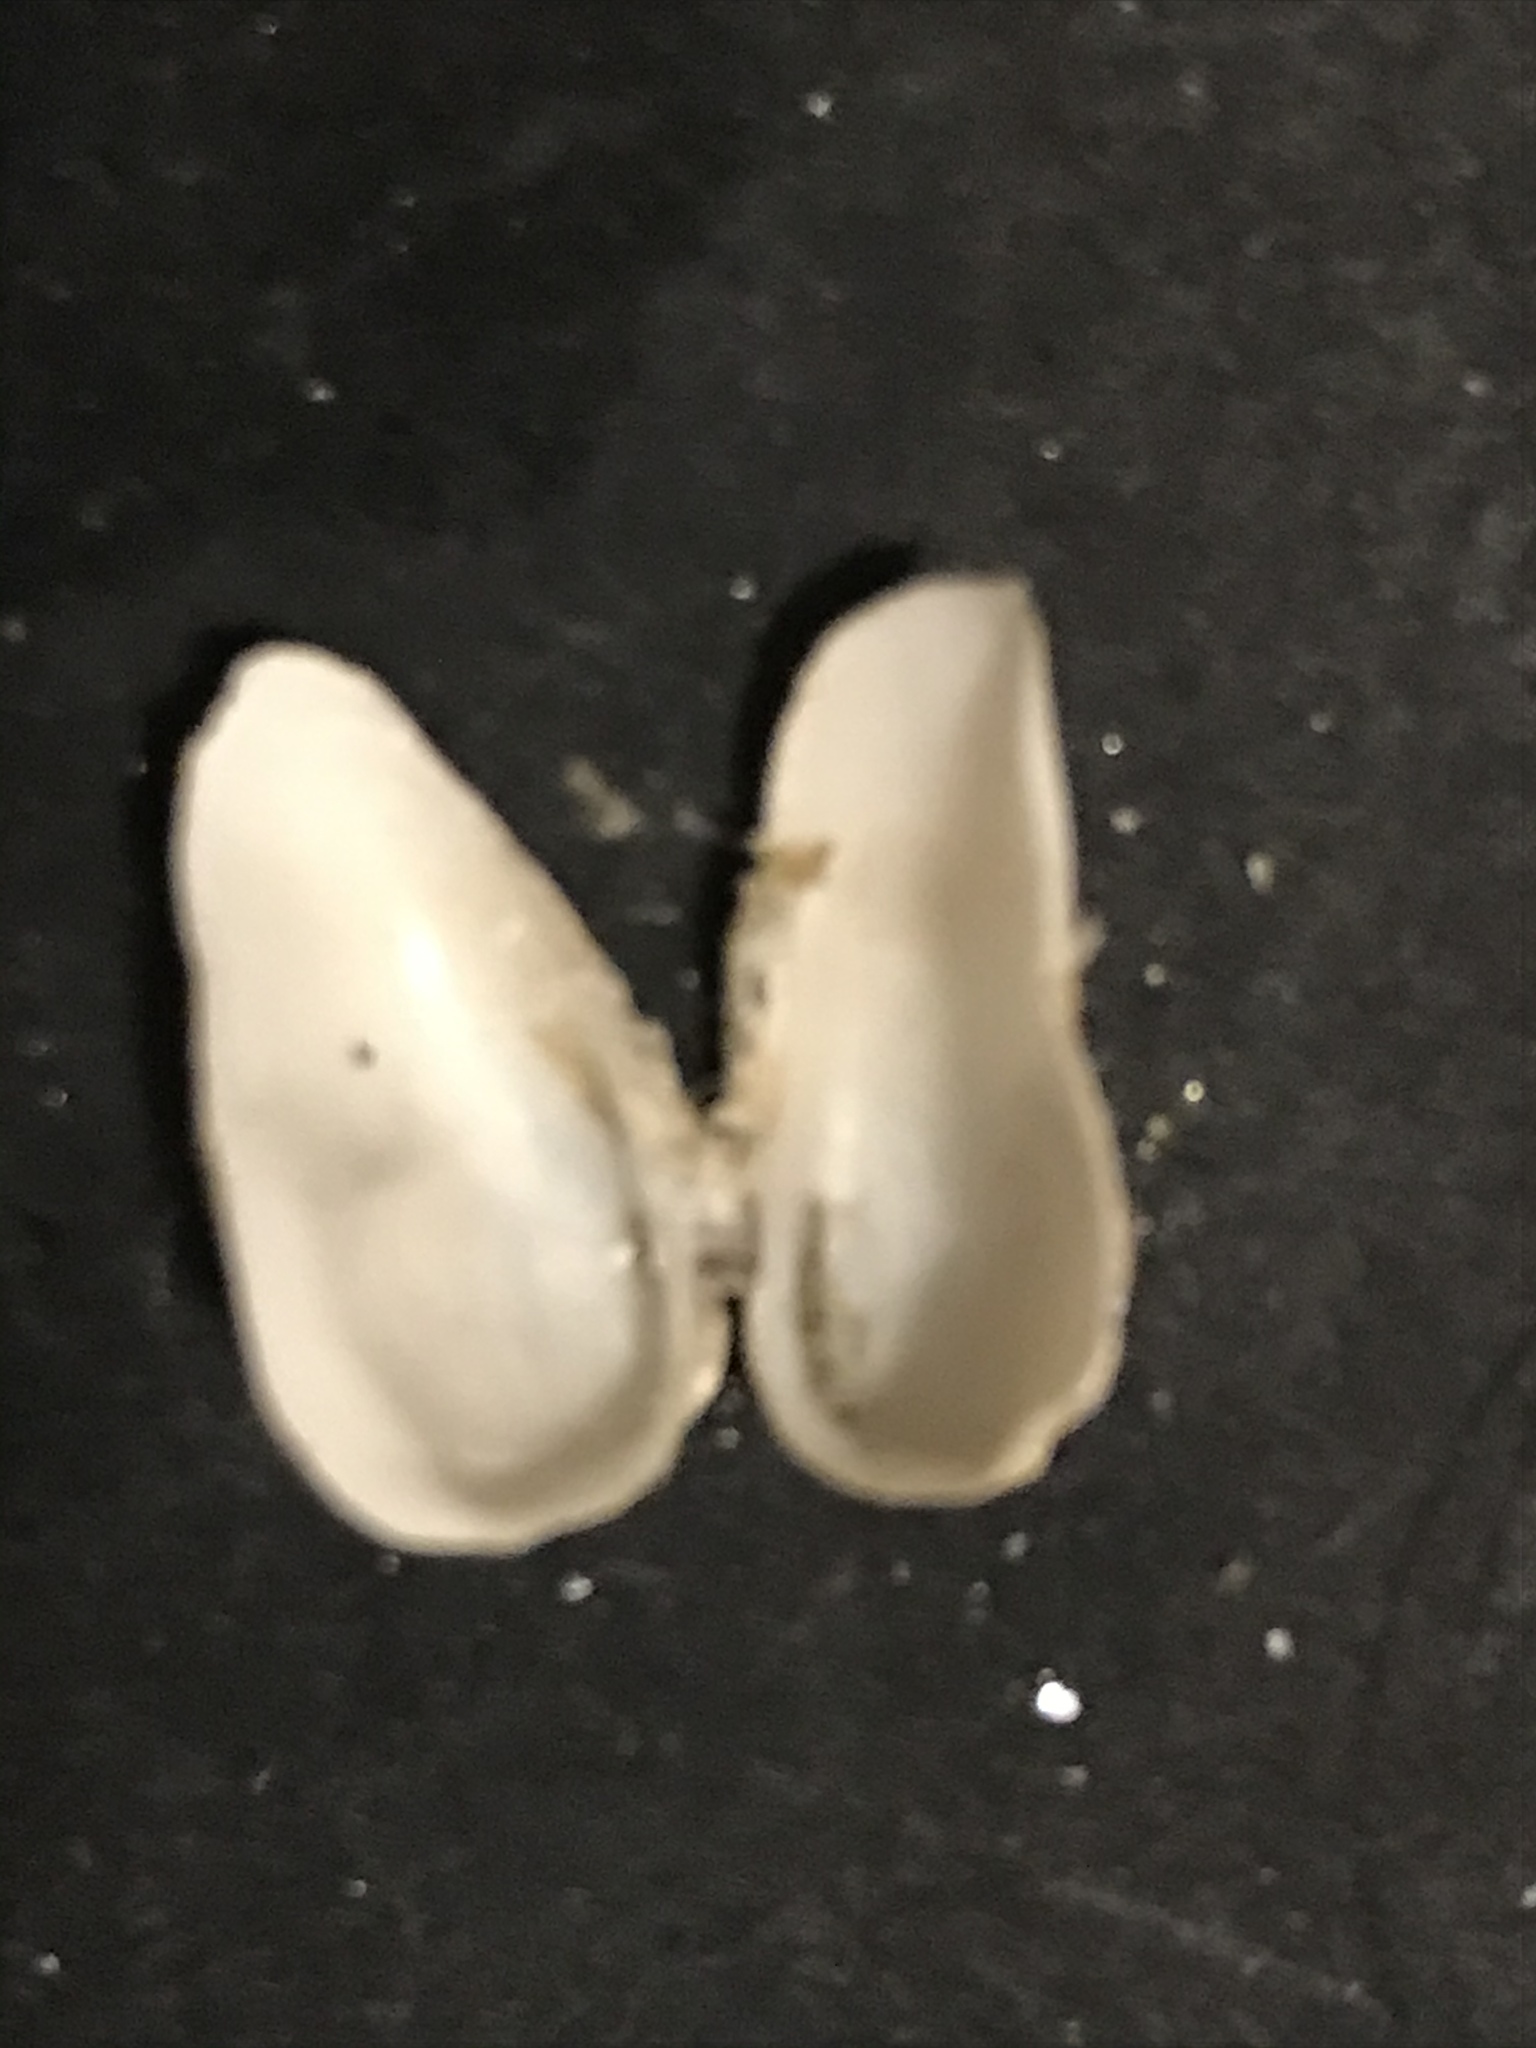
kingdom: Animalia
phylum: Mollusca
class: Bivalvia
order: Adapedonta
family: Hiatellidae
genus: Hiatella
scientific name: Hiatella arctica
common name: Arctic hiatella
